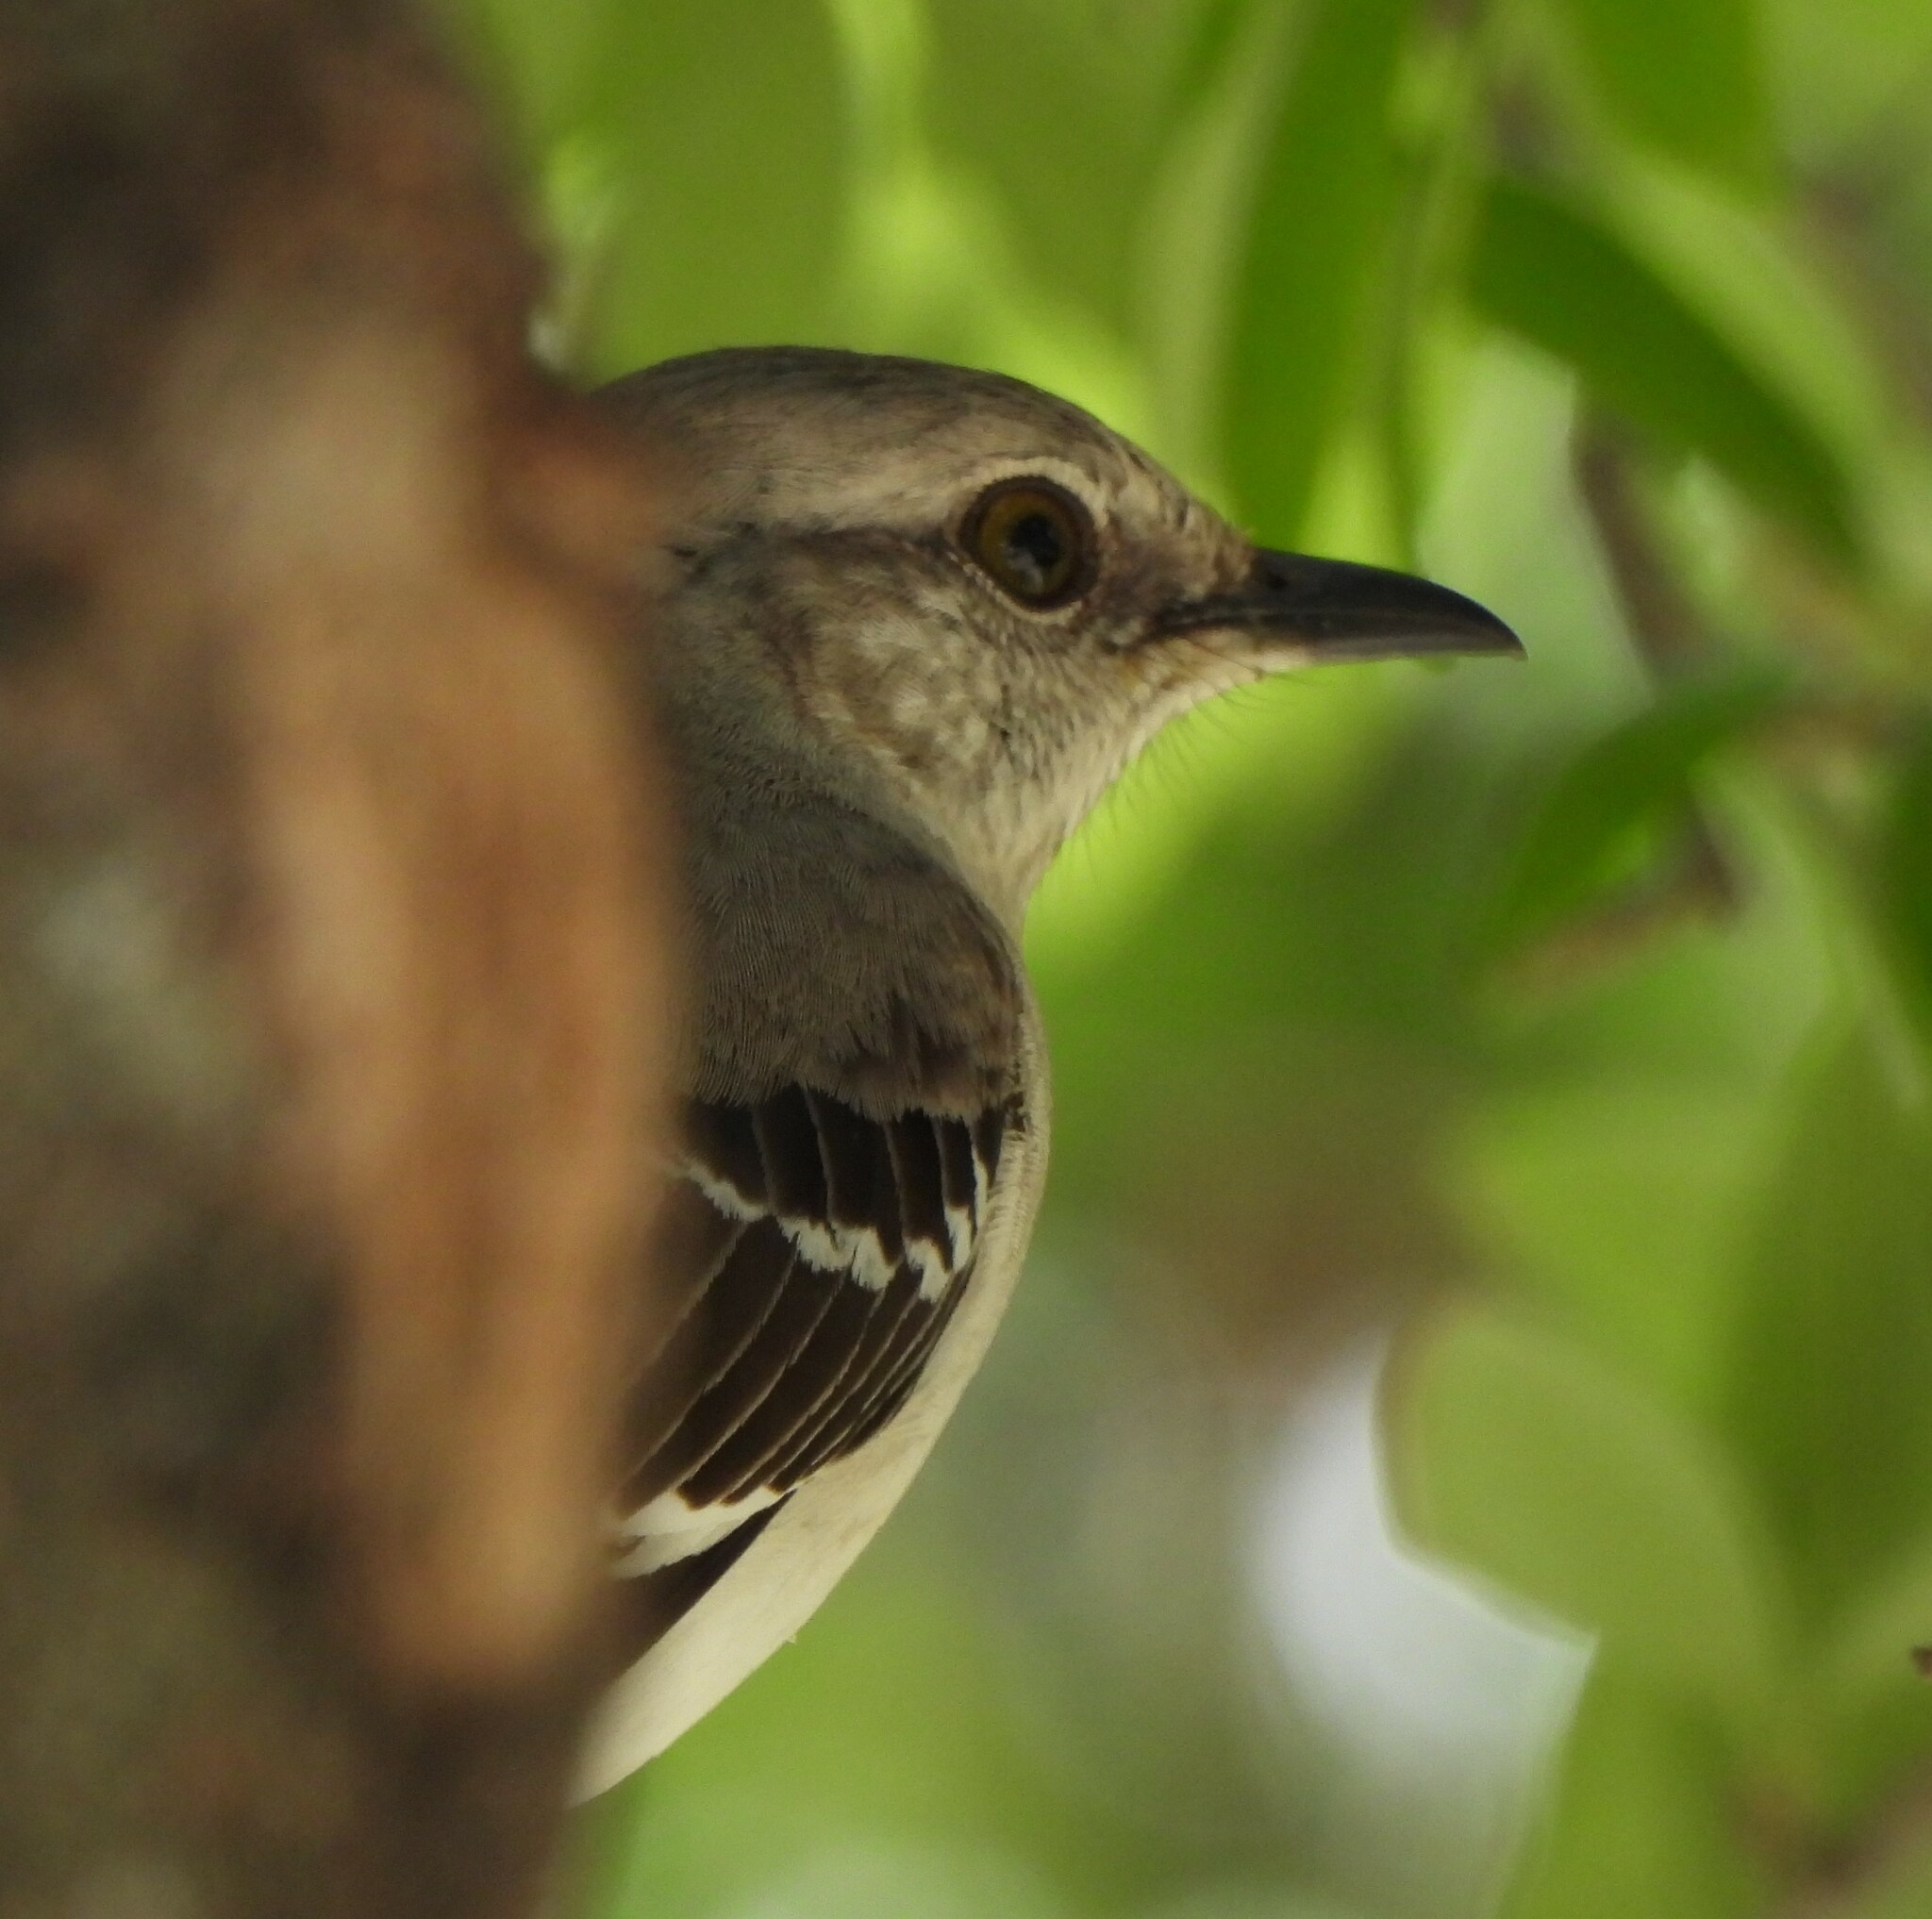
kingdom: Animalia
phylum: Chordata
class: Aves
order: Passeriformes
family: Mimidae
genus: Mimus
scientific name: Mimus polyglottos
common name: Northern mockingbird
